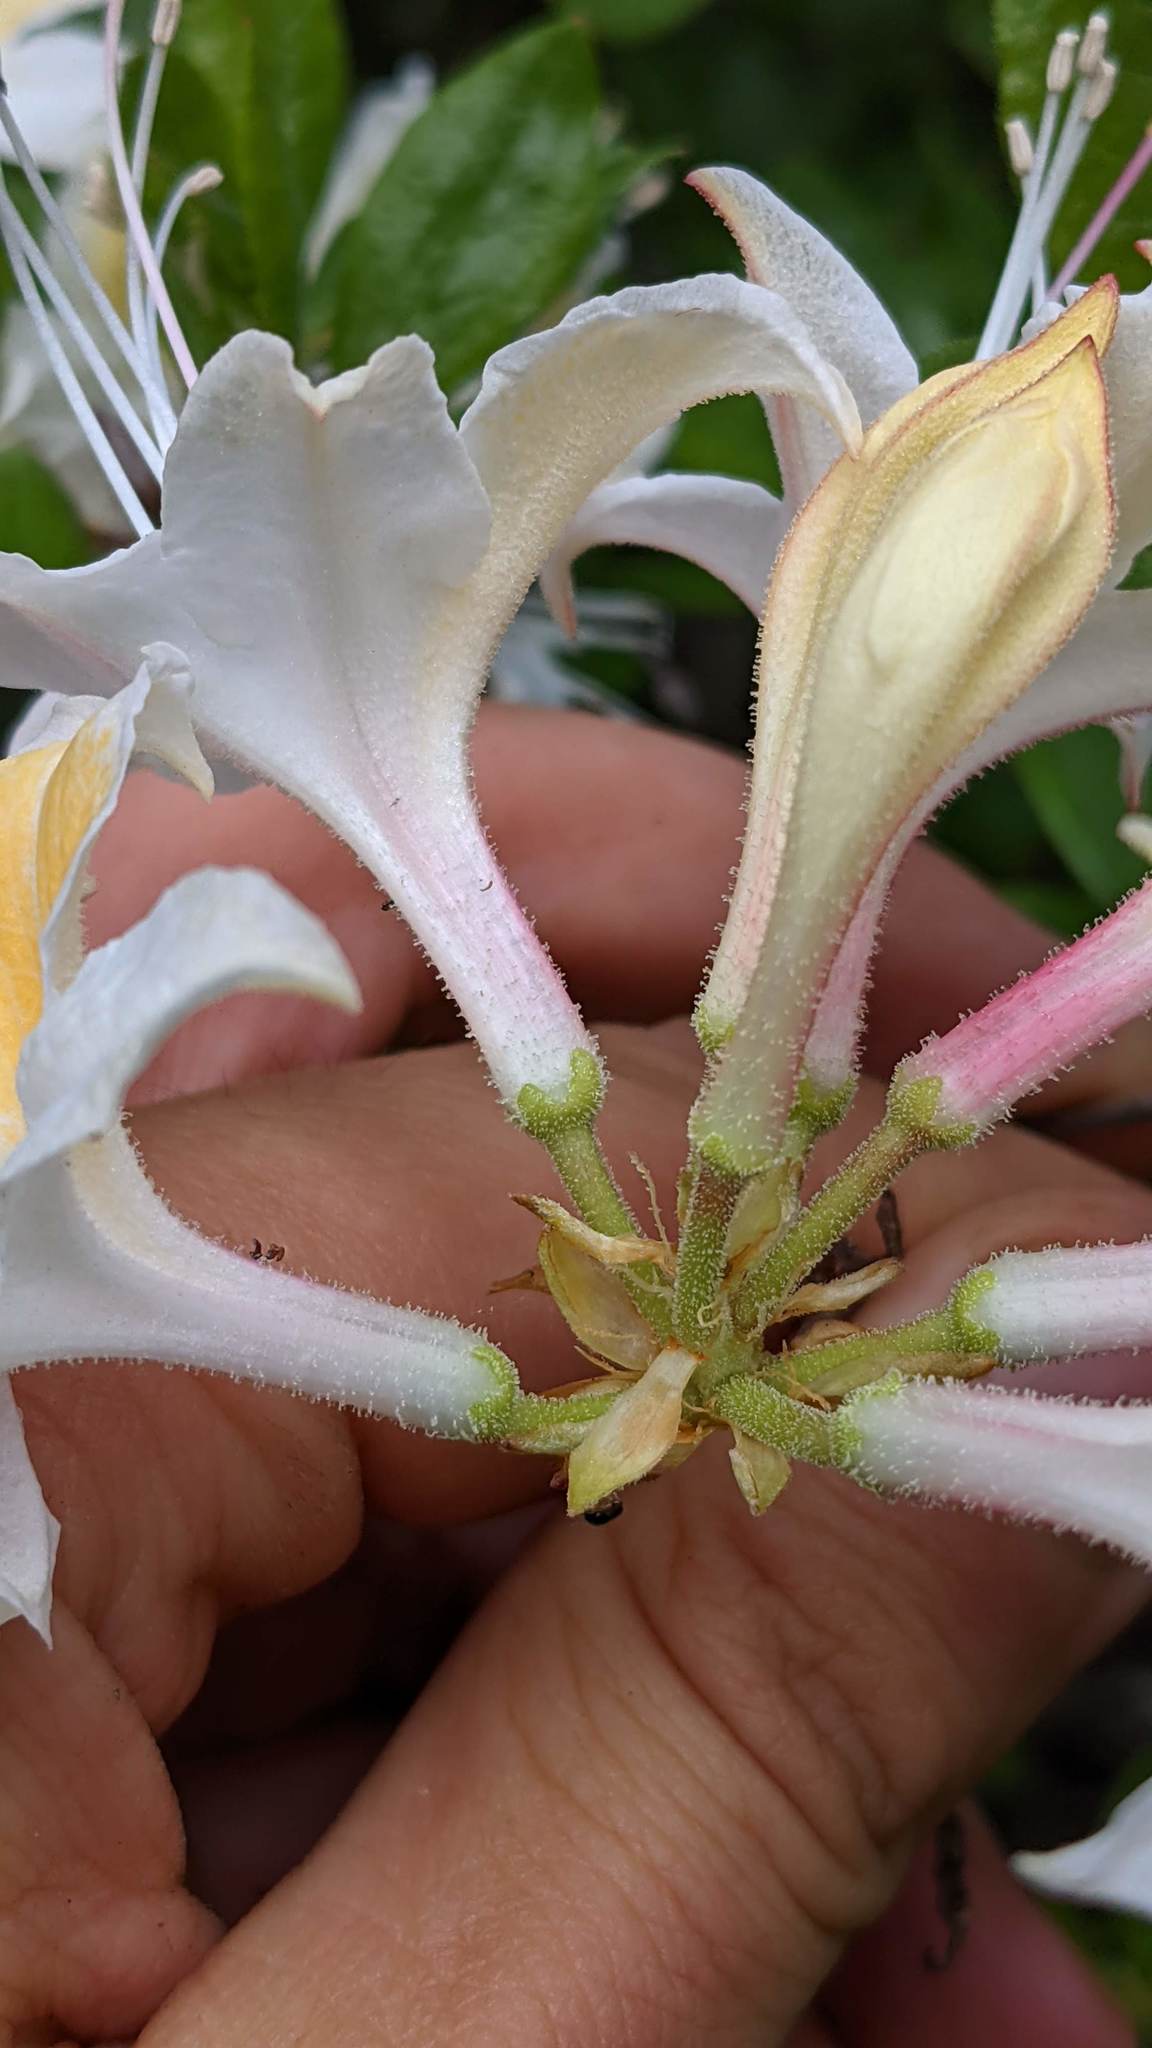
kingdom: Plantae
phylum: Tracheophyta
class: Magnoliopsida
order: Ericales
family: Ericaceae
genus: Rhododendron
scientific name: Rhododendron occidentale
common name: Western azalea
